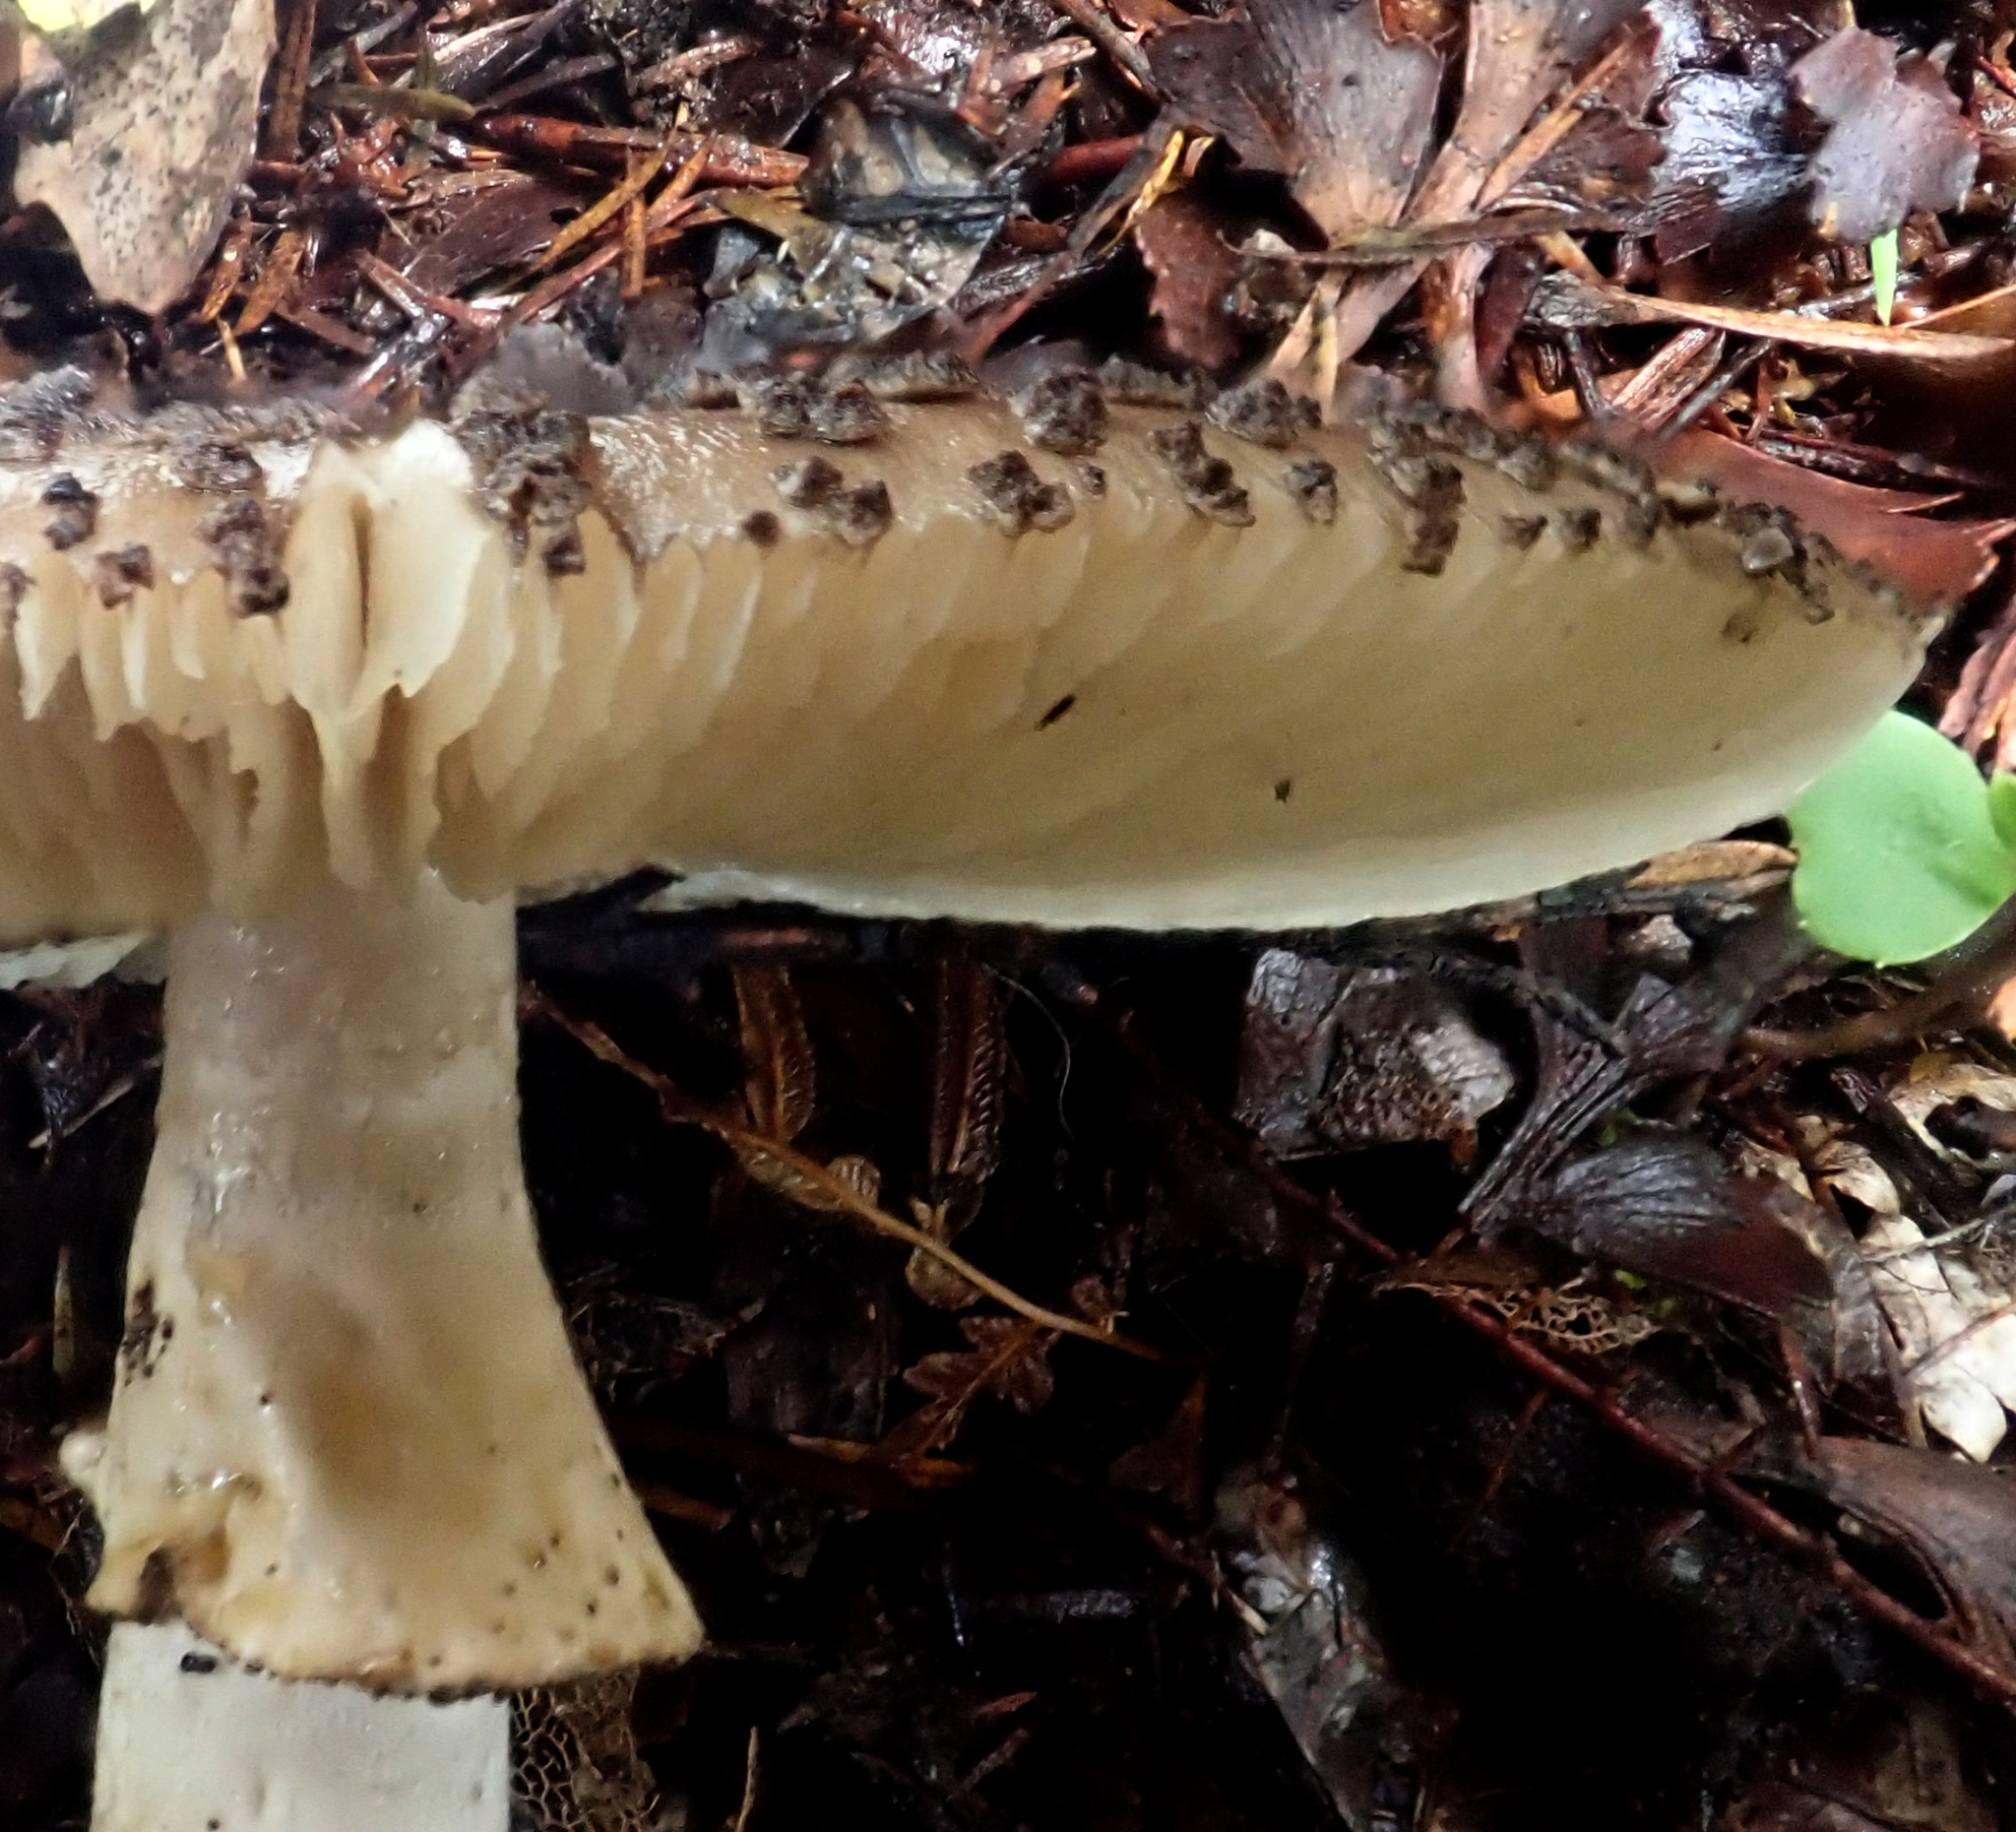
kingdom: Fungi
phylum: Basidiomycota
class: Agaricomycetes
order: Agaricales
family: Amanitaceae
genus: Amanita
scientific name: Amanita australis
